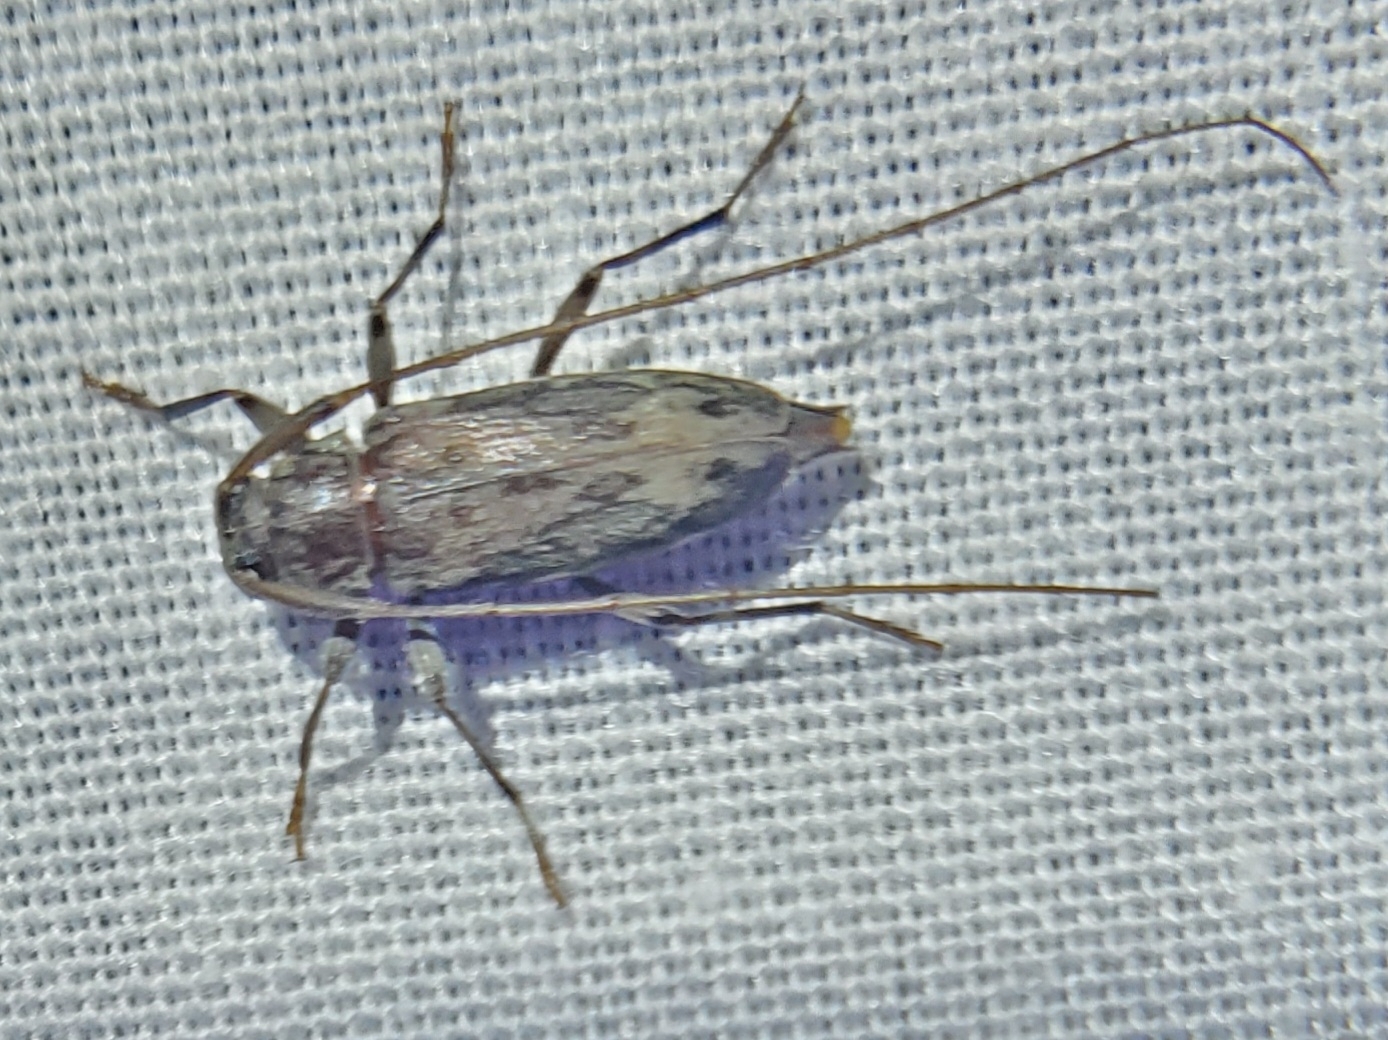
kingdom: Animalia
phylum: Arthropoda
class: Insecta
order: Coleoptera
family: Cerambycidae
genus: Lepturges
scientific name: Lepturges angulatus
